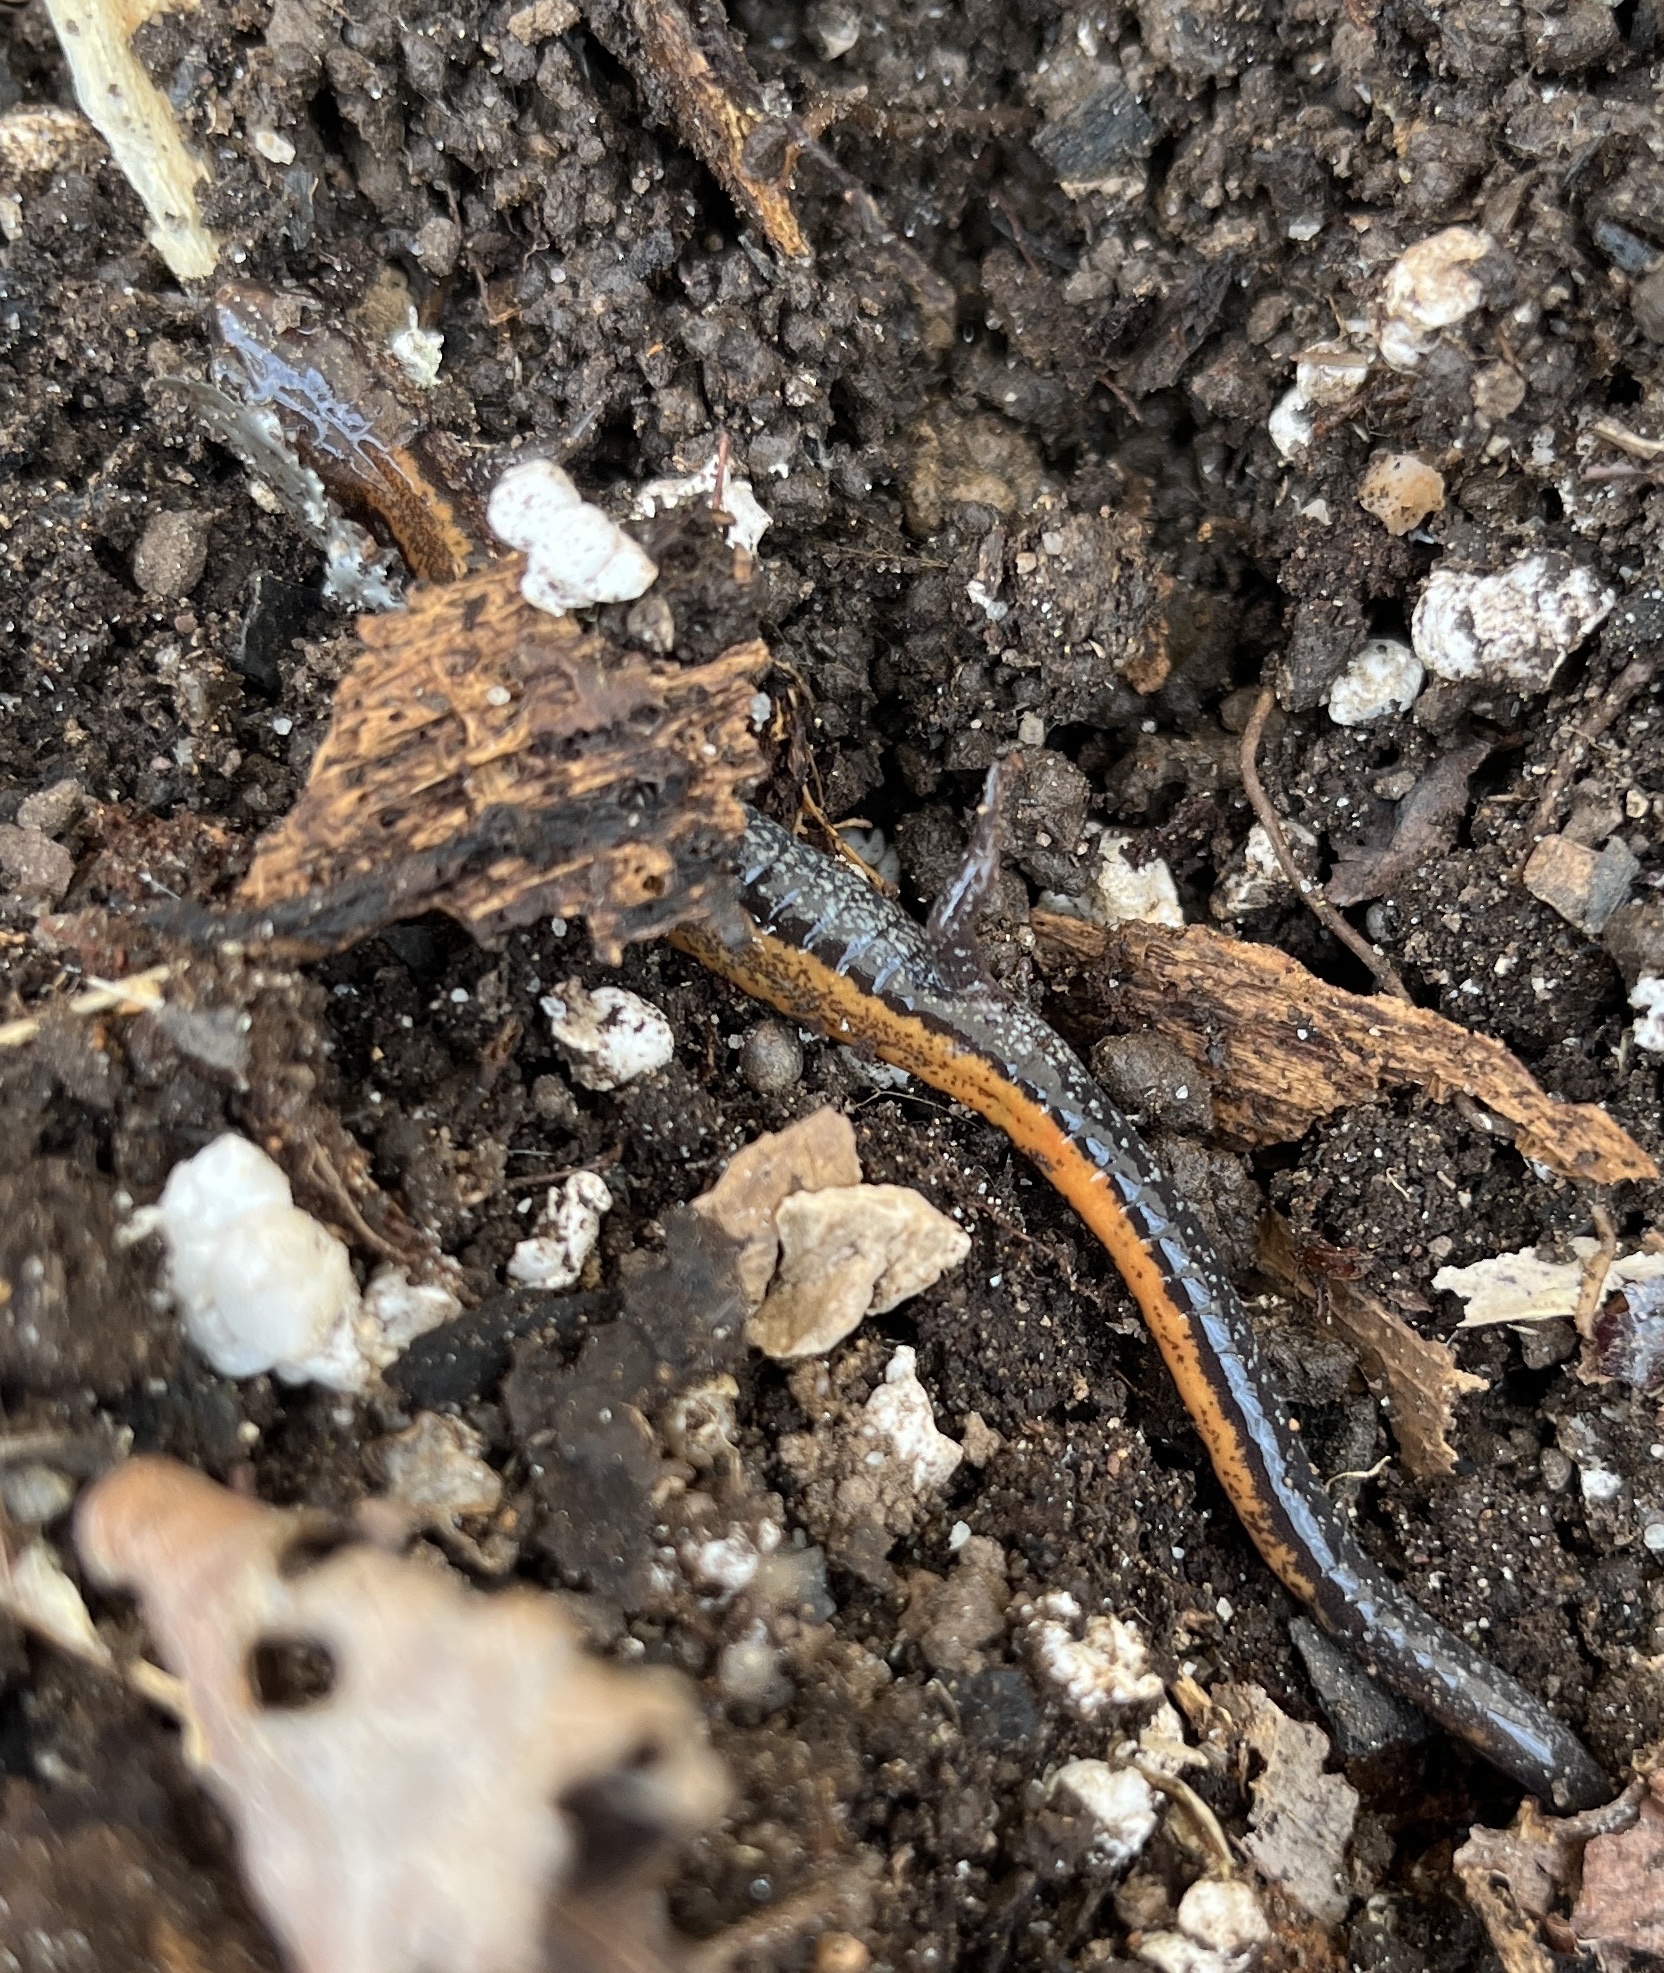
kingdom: Animalia
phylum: Chordata
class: Amphibia
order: Caudata
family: Plethodontidae
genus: Plethodon
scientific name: Plethodon cinereus
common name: Redback salamander
